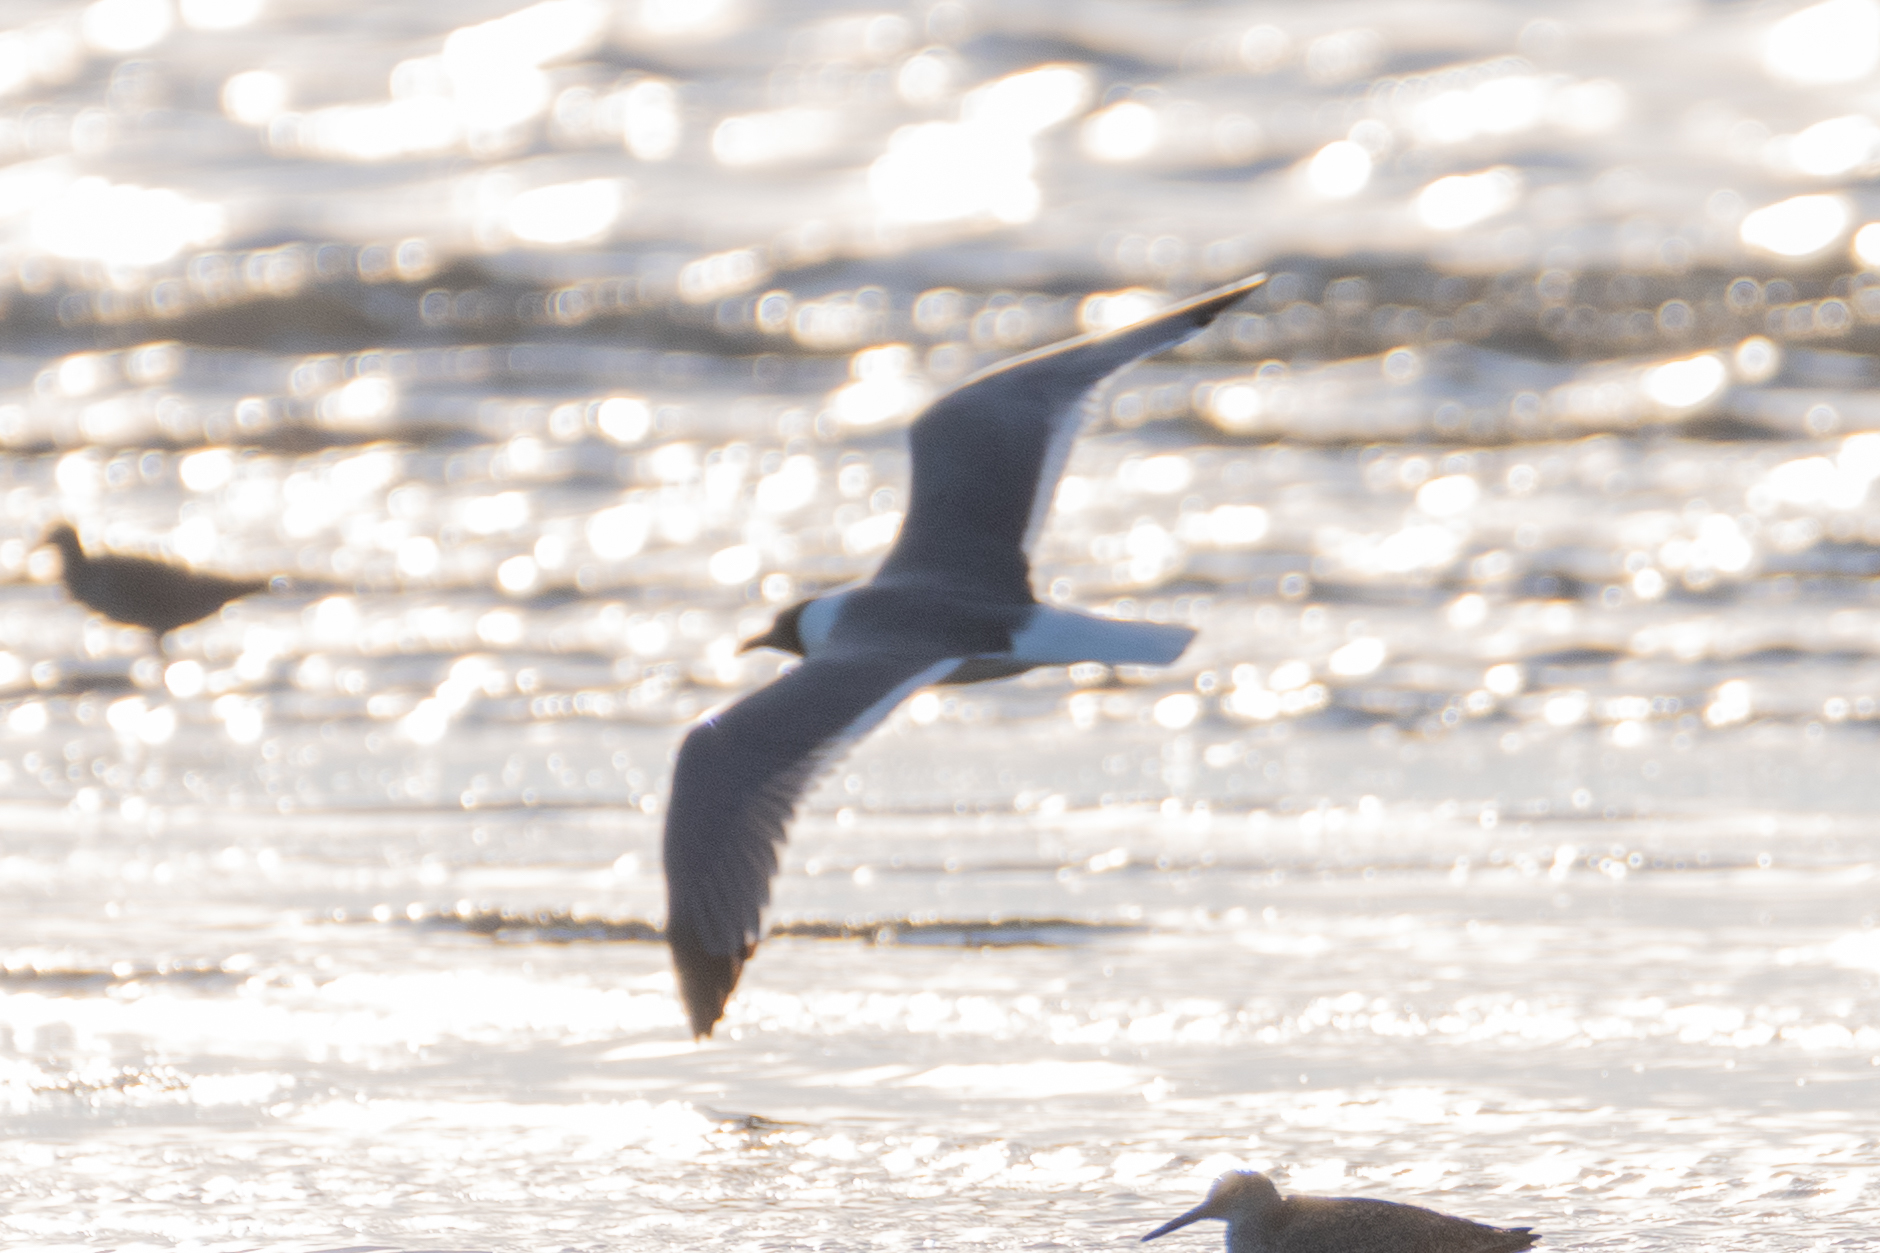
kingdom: Animalia
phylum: Chordata
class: Aves
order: Charadriiformes
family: Laridae
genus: Leucophaeus
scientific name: Leucophaeus atricilla
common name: Laughing gull
